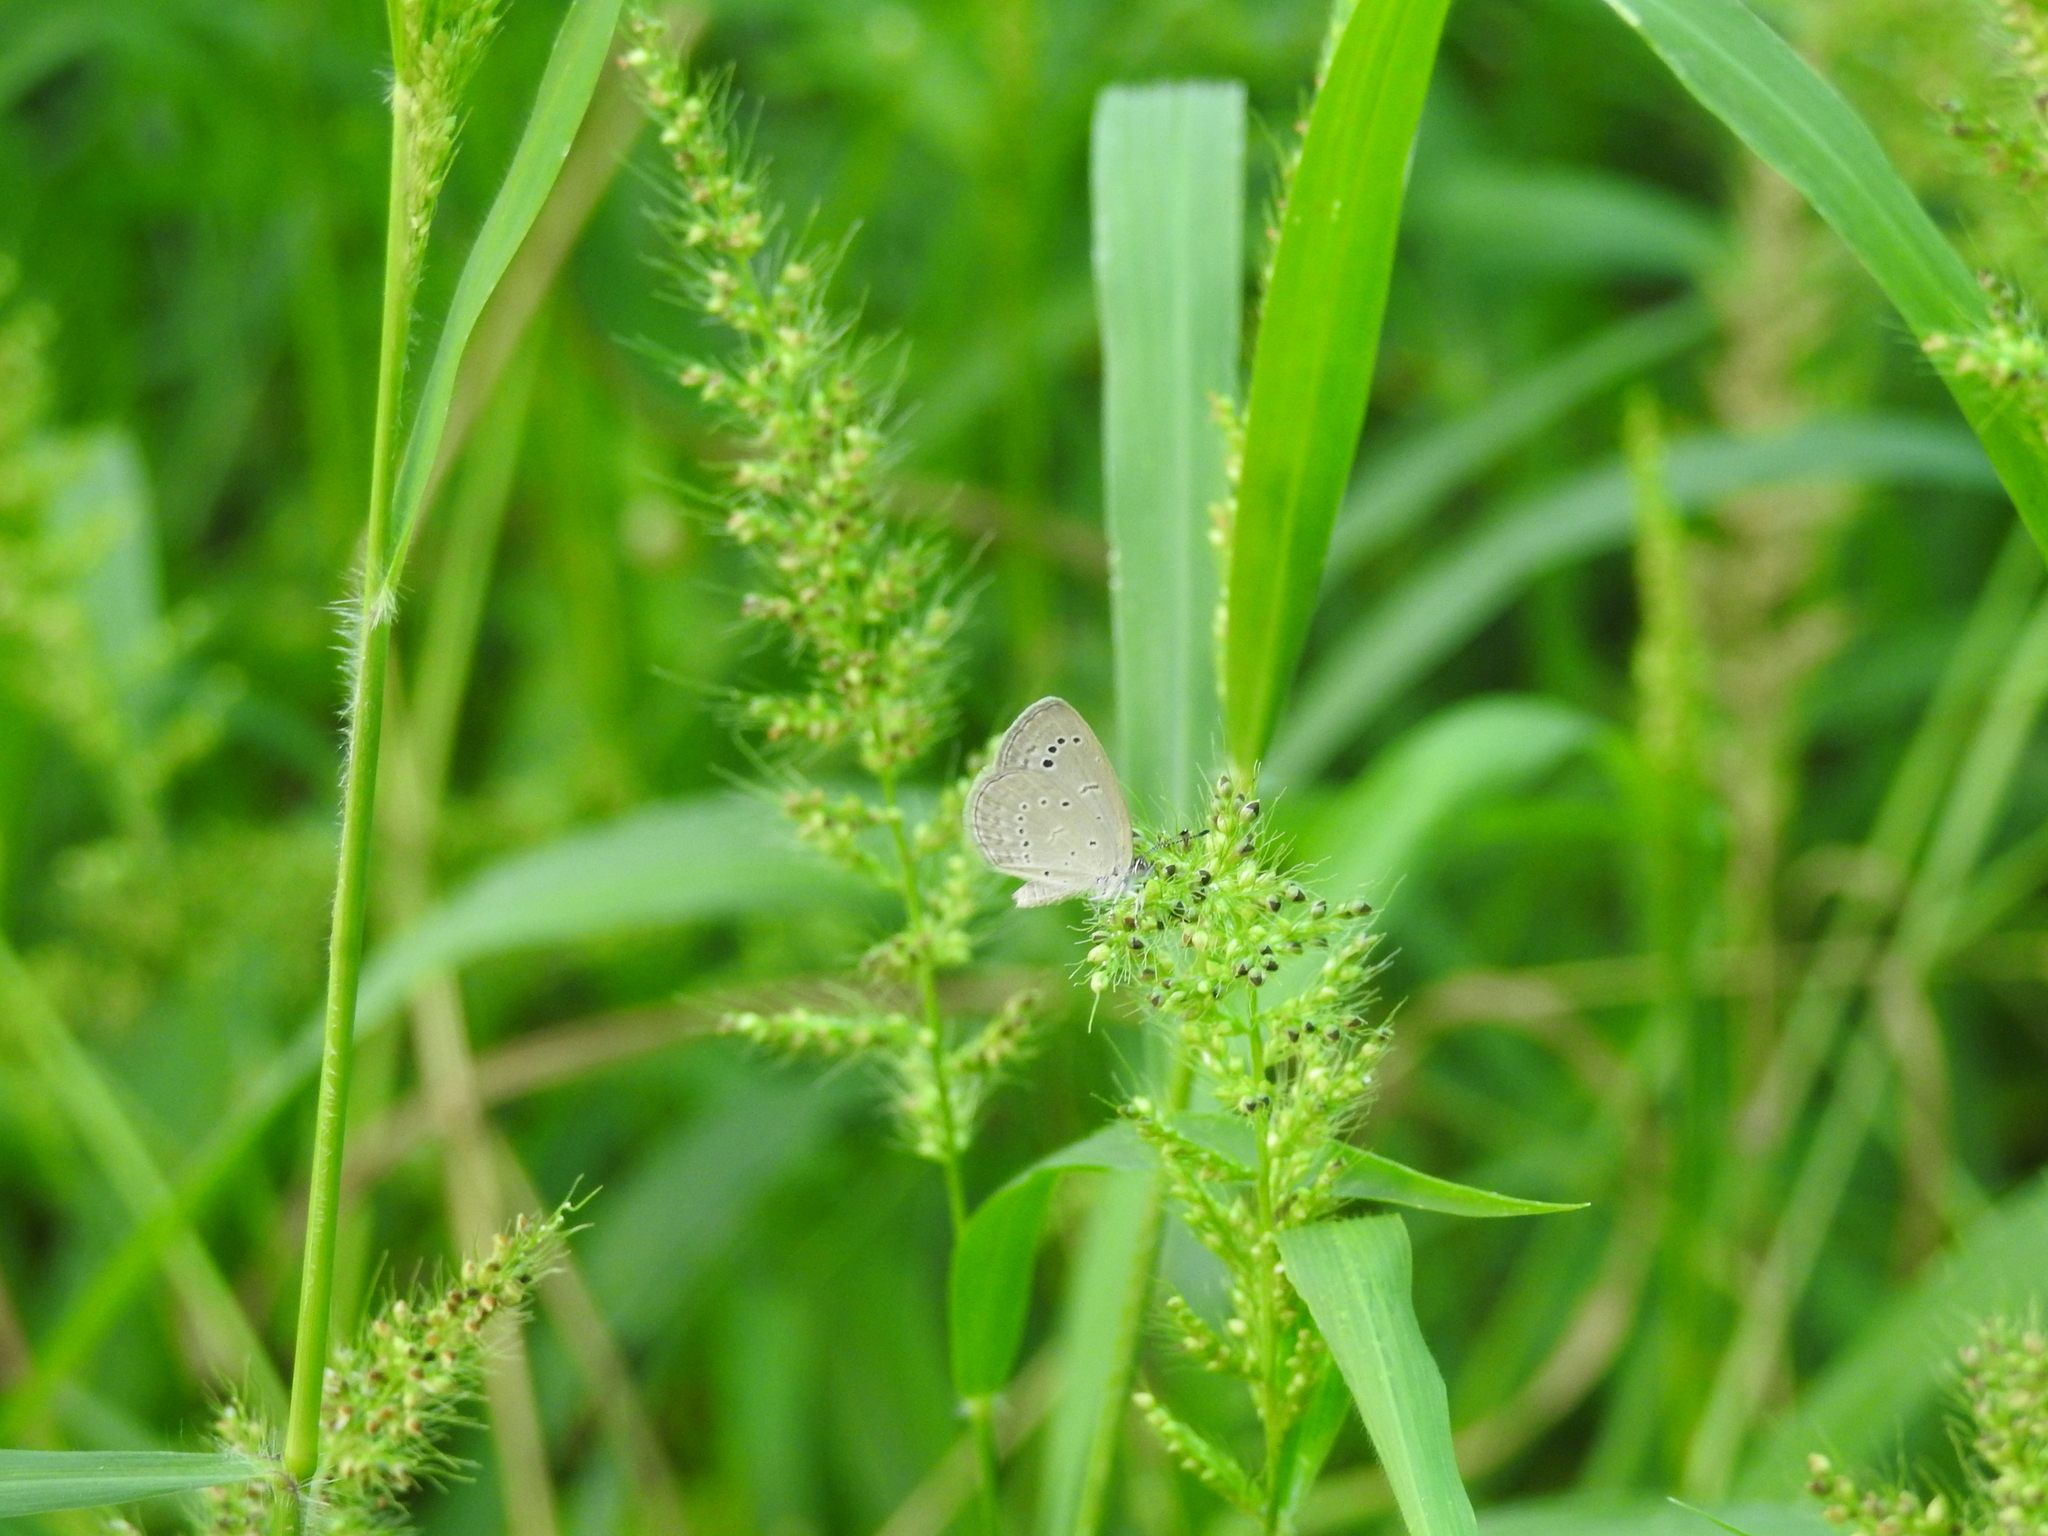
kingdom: Animalia
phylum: Arthropoda
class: Insecta
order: Lepidoptera
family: Lycaenidae
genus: Pseudozizeeria
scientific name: Pseudozizeeria maha
